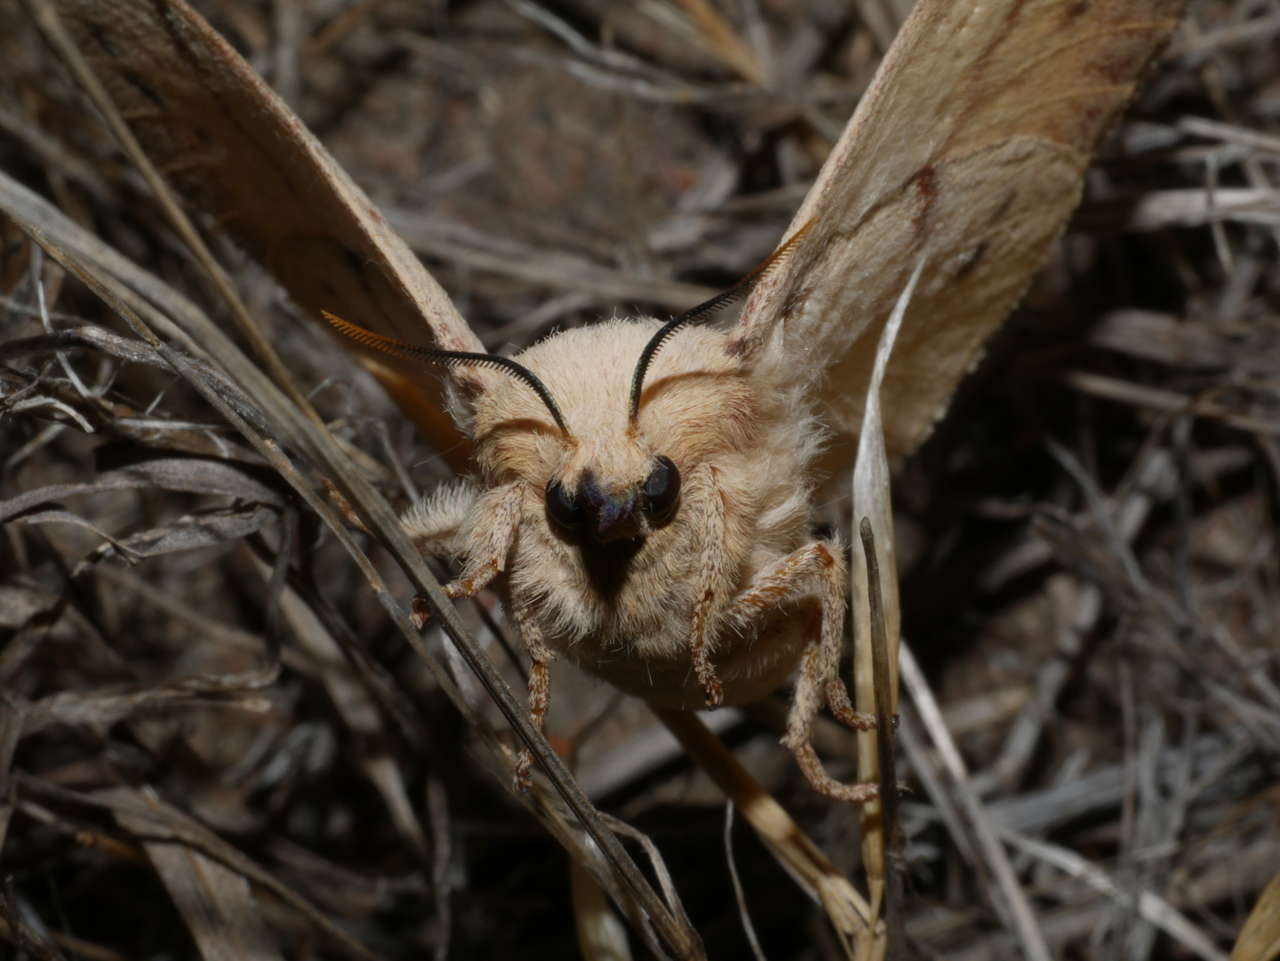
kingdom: Animalia
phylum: Arthropoda
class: Insecta
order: Lepidoptera
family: Lasiocampidae
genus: Entometa
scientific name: Entometa chlorosacca
